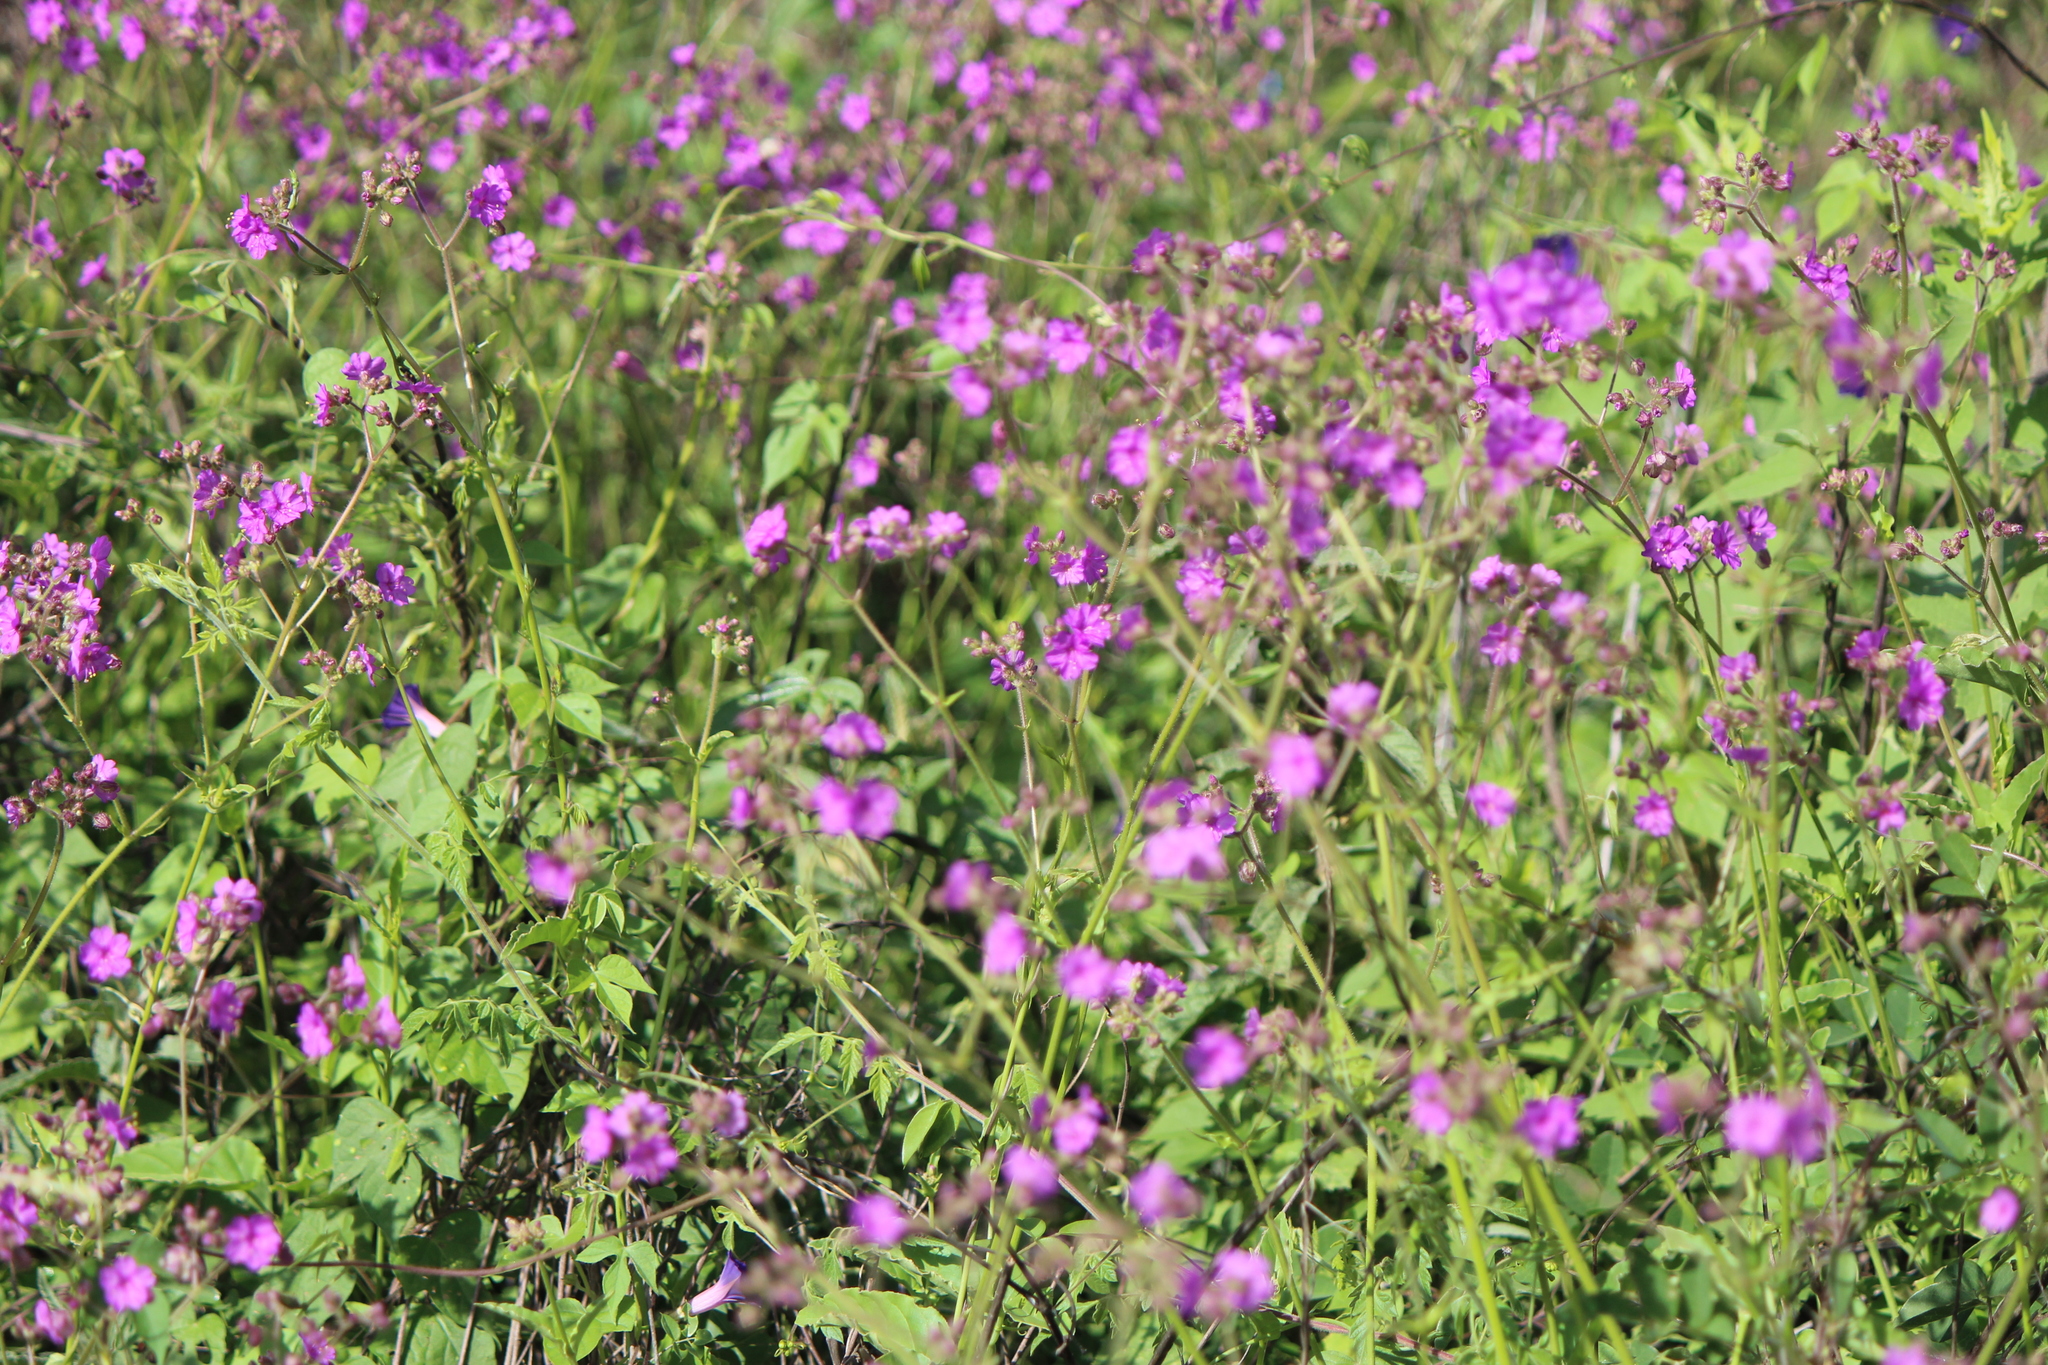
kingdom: Plantae
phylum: Tracheophyta
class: Magnoliopsida
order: Caryophyllales
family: Nyctaginaceae
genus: Mirabilis
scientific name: Mirabilis viscosa
